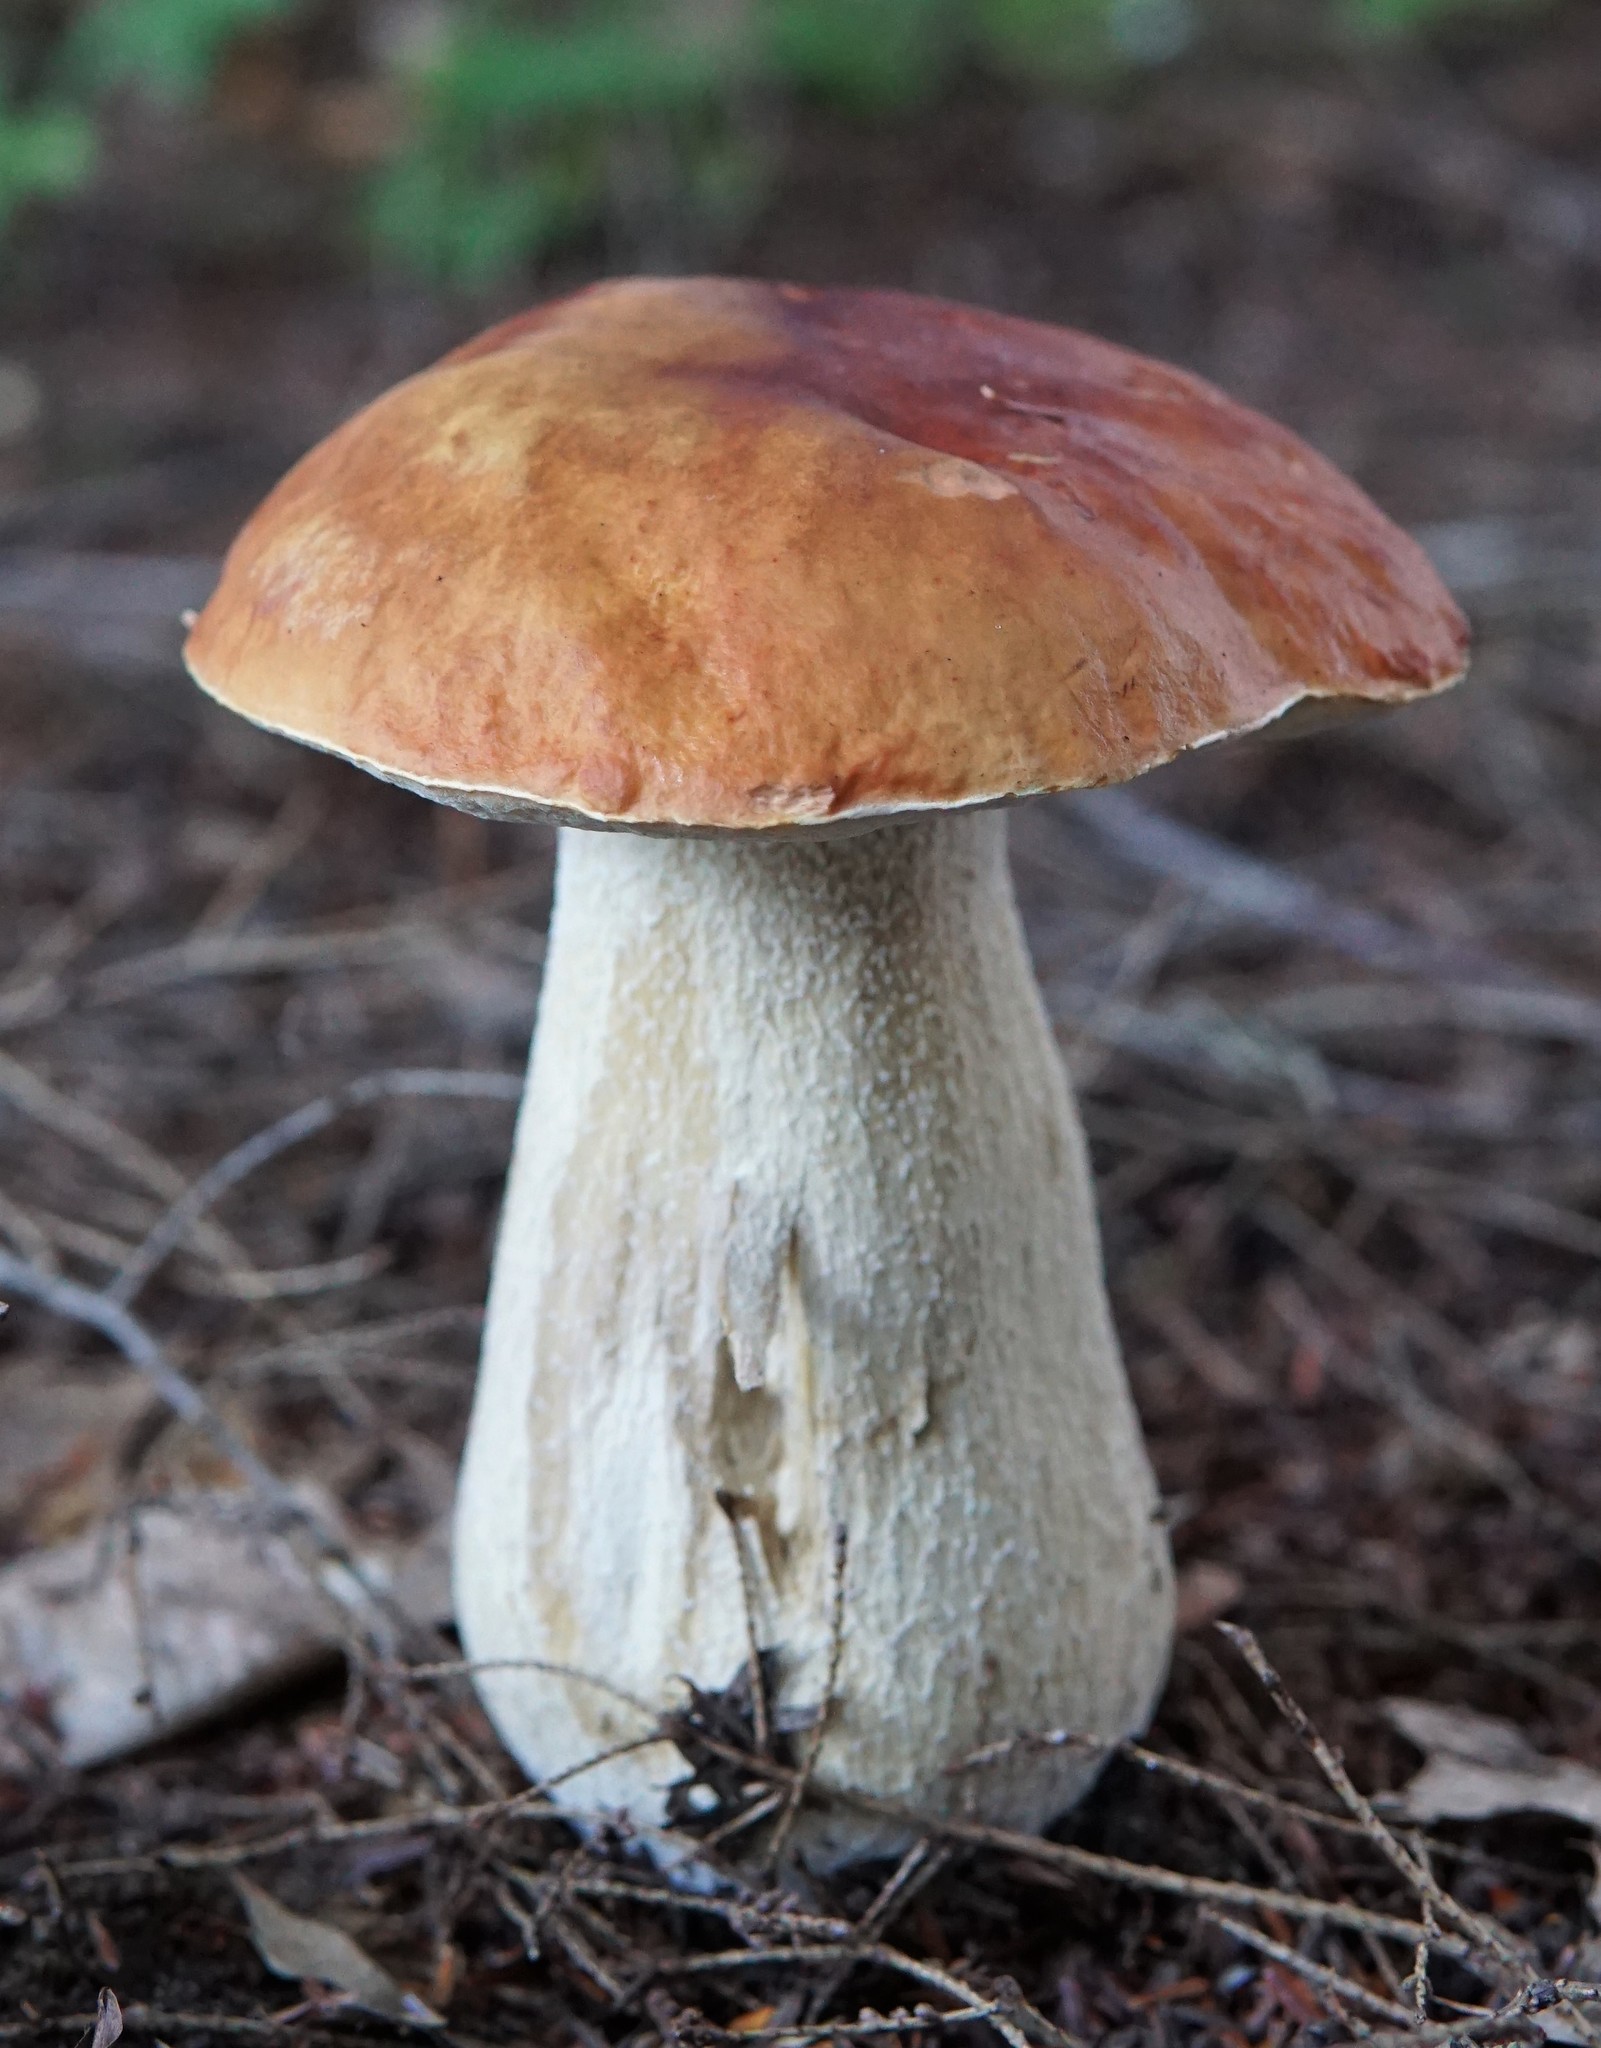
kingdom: Fungi
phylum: Basidiomycota
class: Agaricomycetes
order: Boletales
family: Boletaceae
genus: Boletus
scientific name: Boletus chippewaensis
